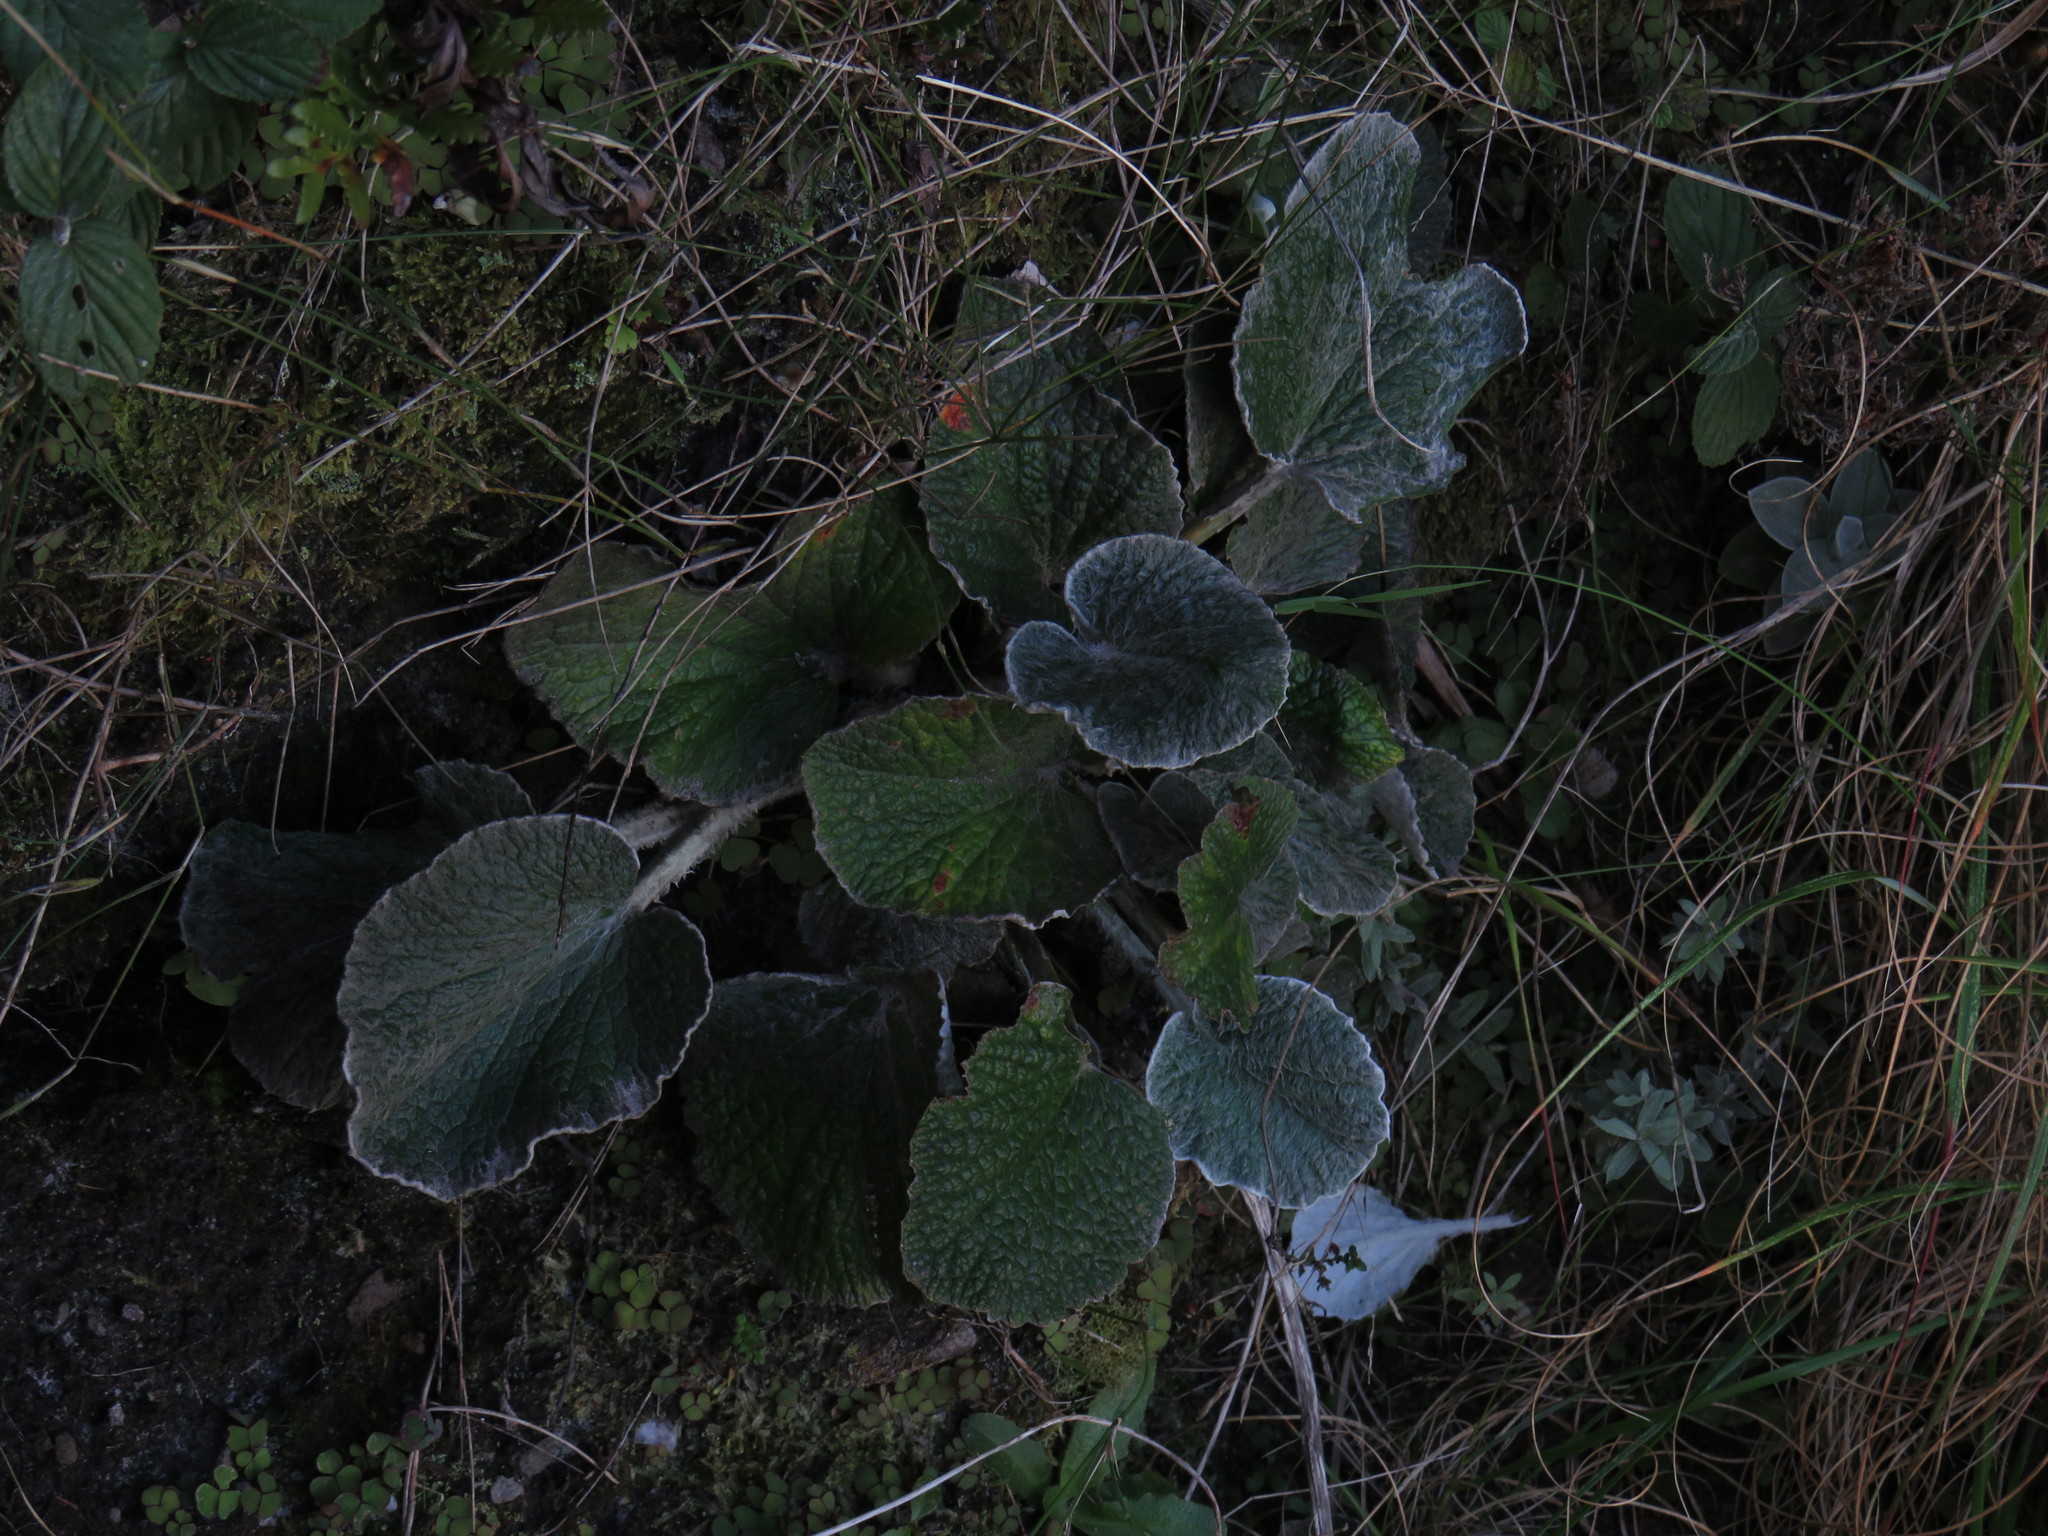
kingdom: Plantae
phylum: Tracheophyta
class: Magnoliopsida
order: Apiales
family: Apiaceae
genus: Hermas
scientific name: Hermas lanata
